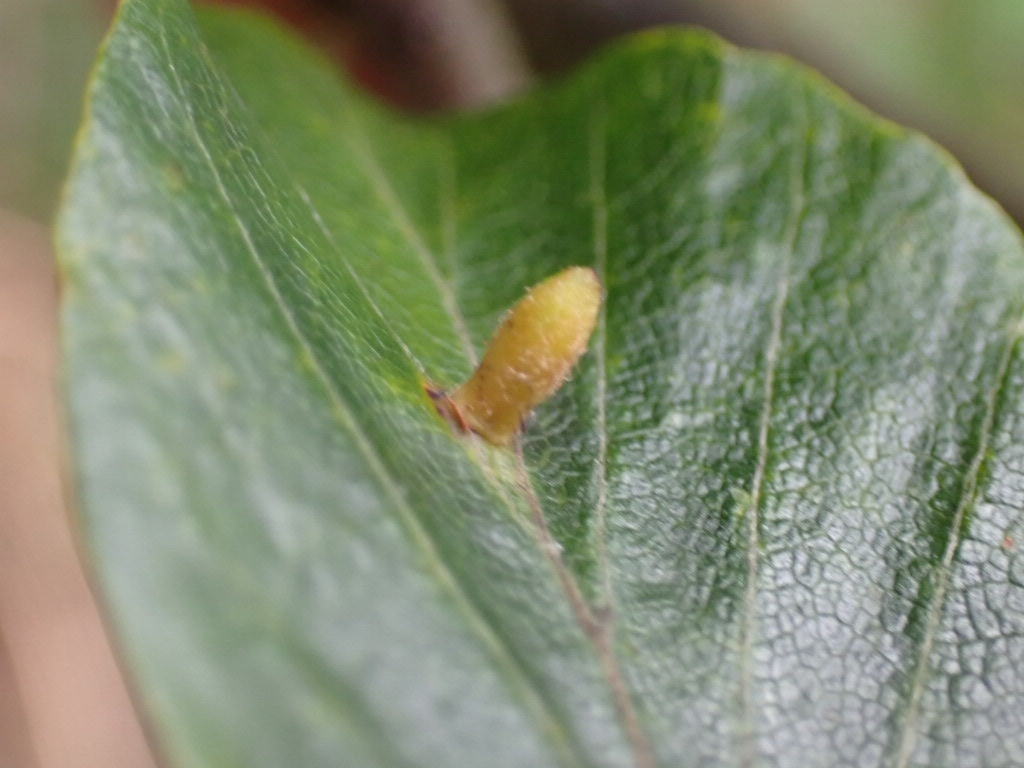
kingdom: Animalia
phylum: Arthropoda
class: Insecta
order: Diptera
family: Cecidomyiidae
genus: Hartigiola
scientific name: Hartigiola annulipes
